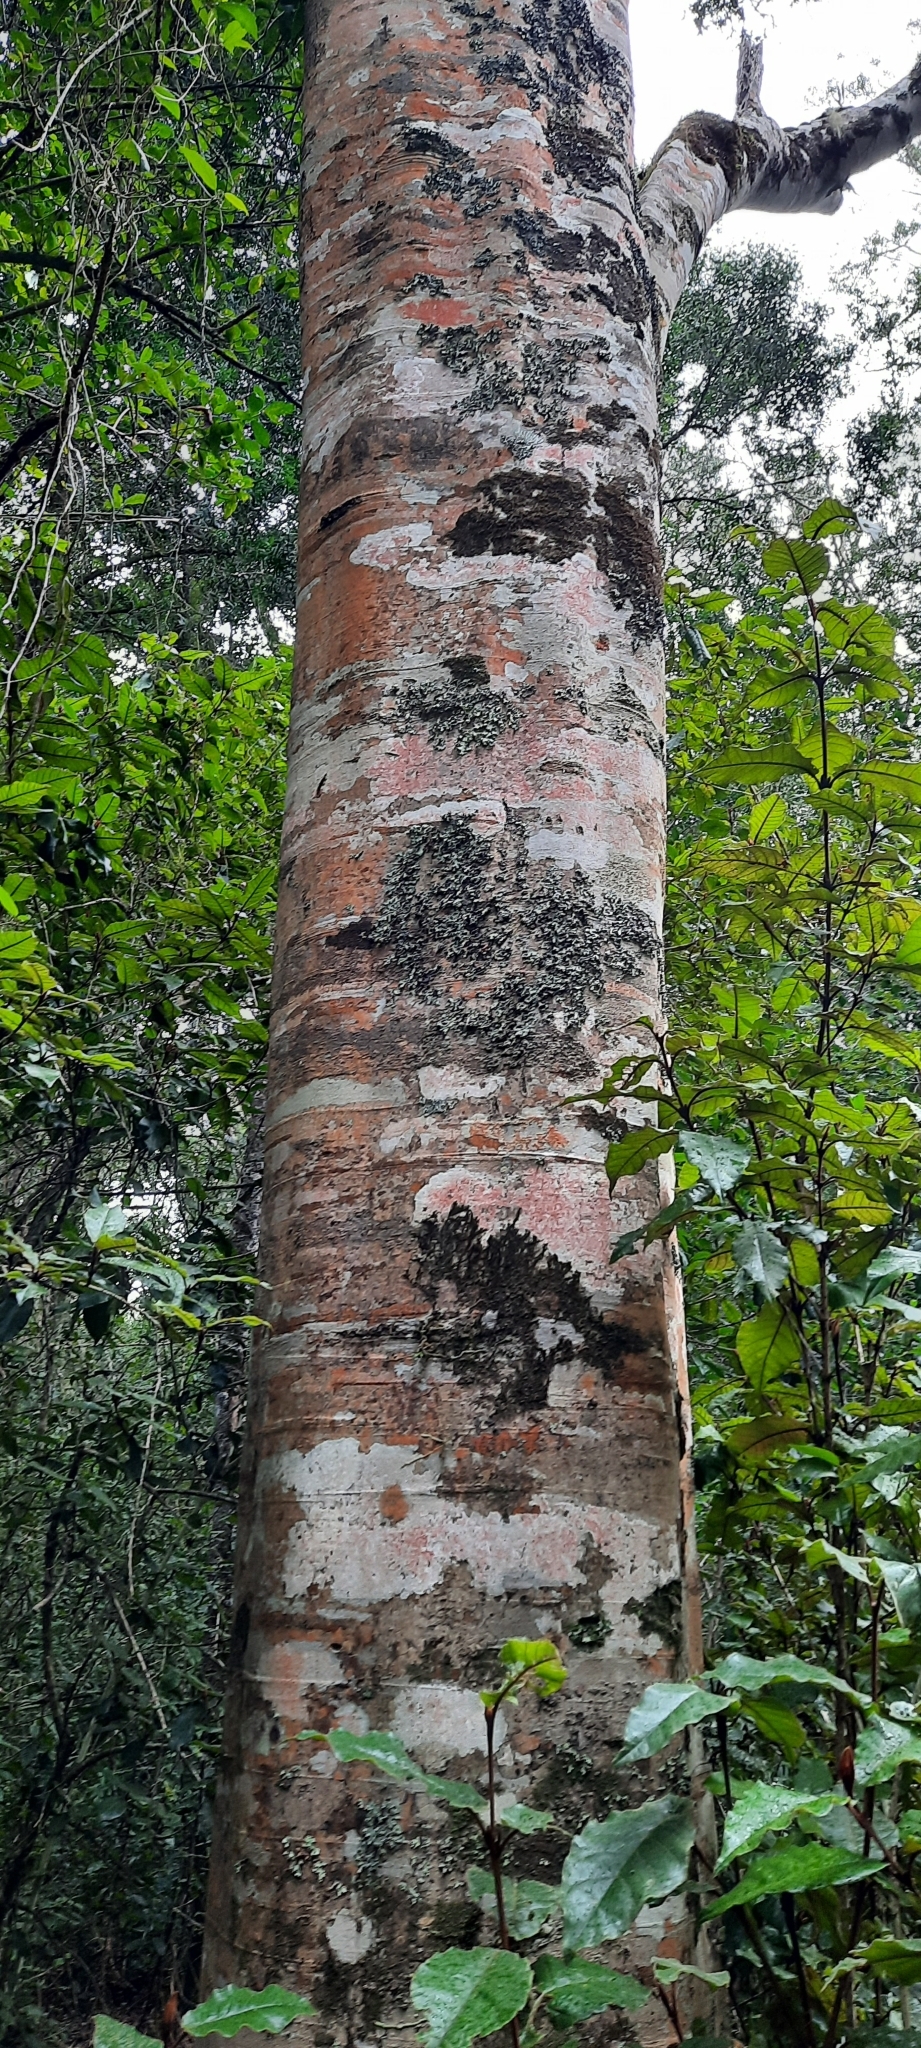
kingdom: Plantae
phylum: Tracheophyta
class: Magnoliopsida
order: Metteniusales
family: Metteniusaceae
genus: Apodytes
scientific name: Apodytes dimidiata
